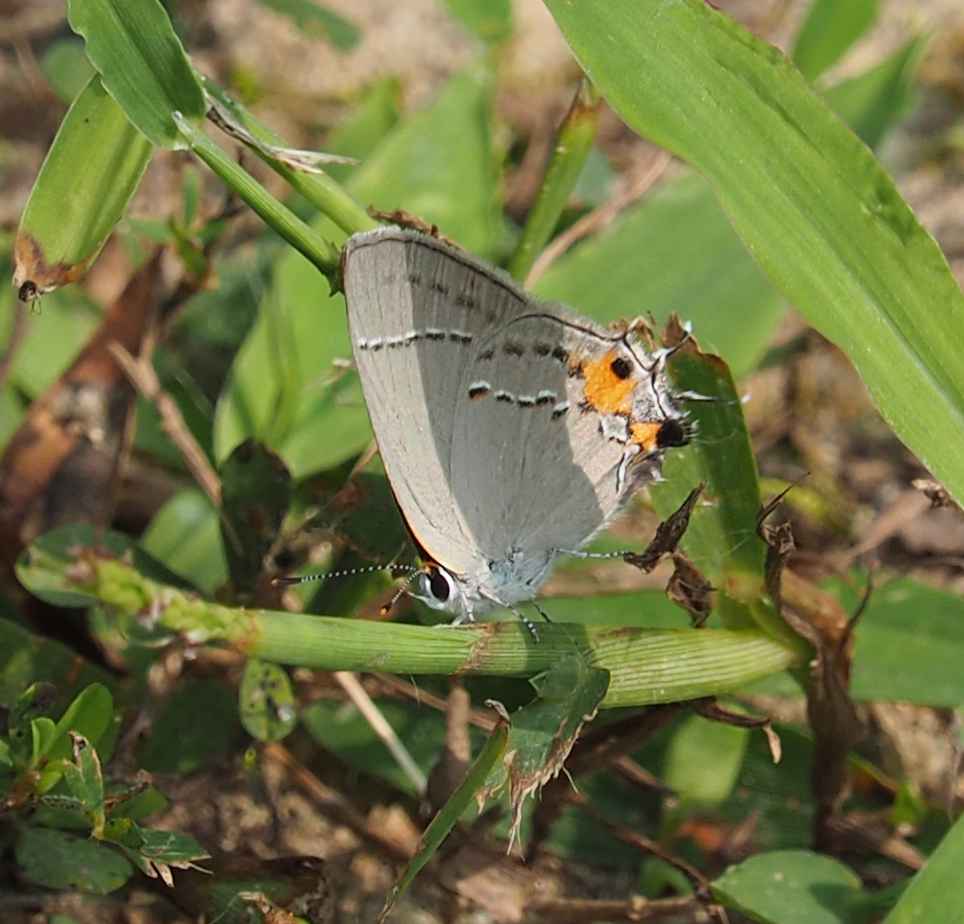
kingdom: Animalia
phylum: Arthropoda
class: Insecta
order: Lepidoptera
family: Lycaenidae
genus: Strymon
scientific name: Strymon melinus
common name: Gray hairstreak
